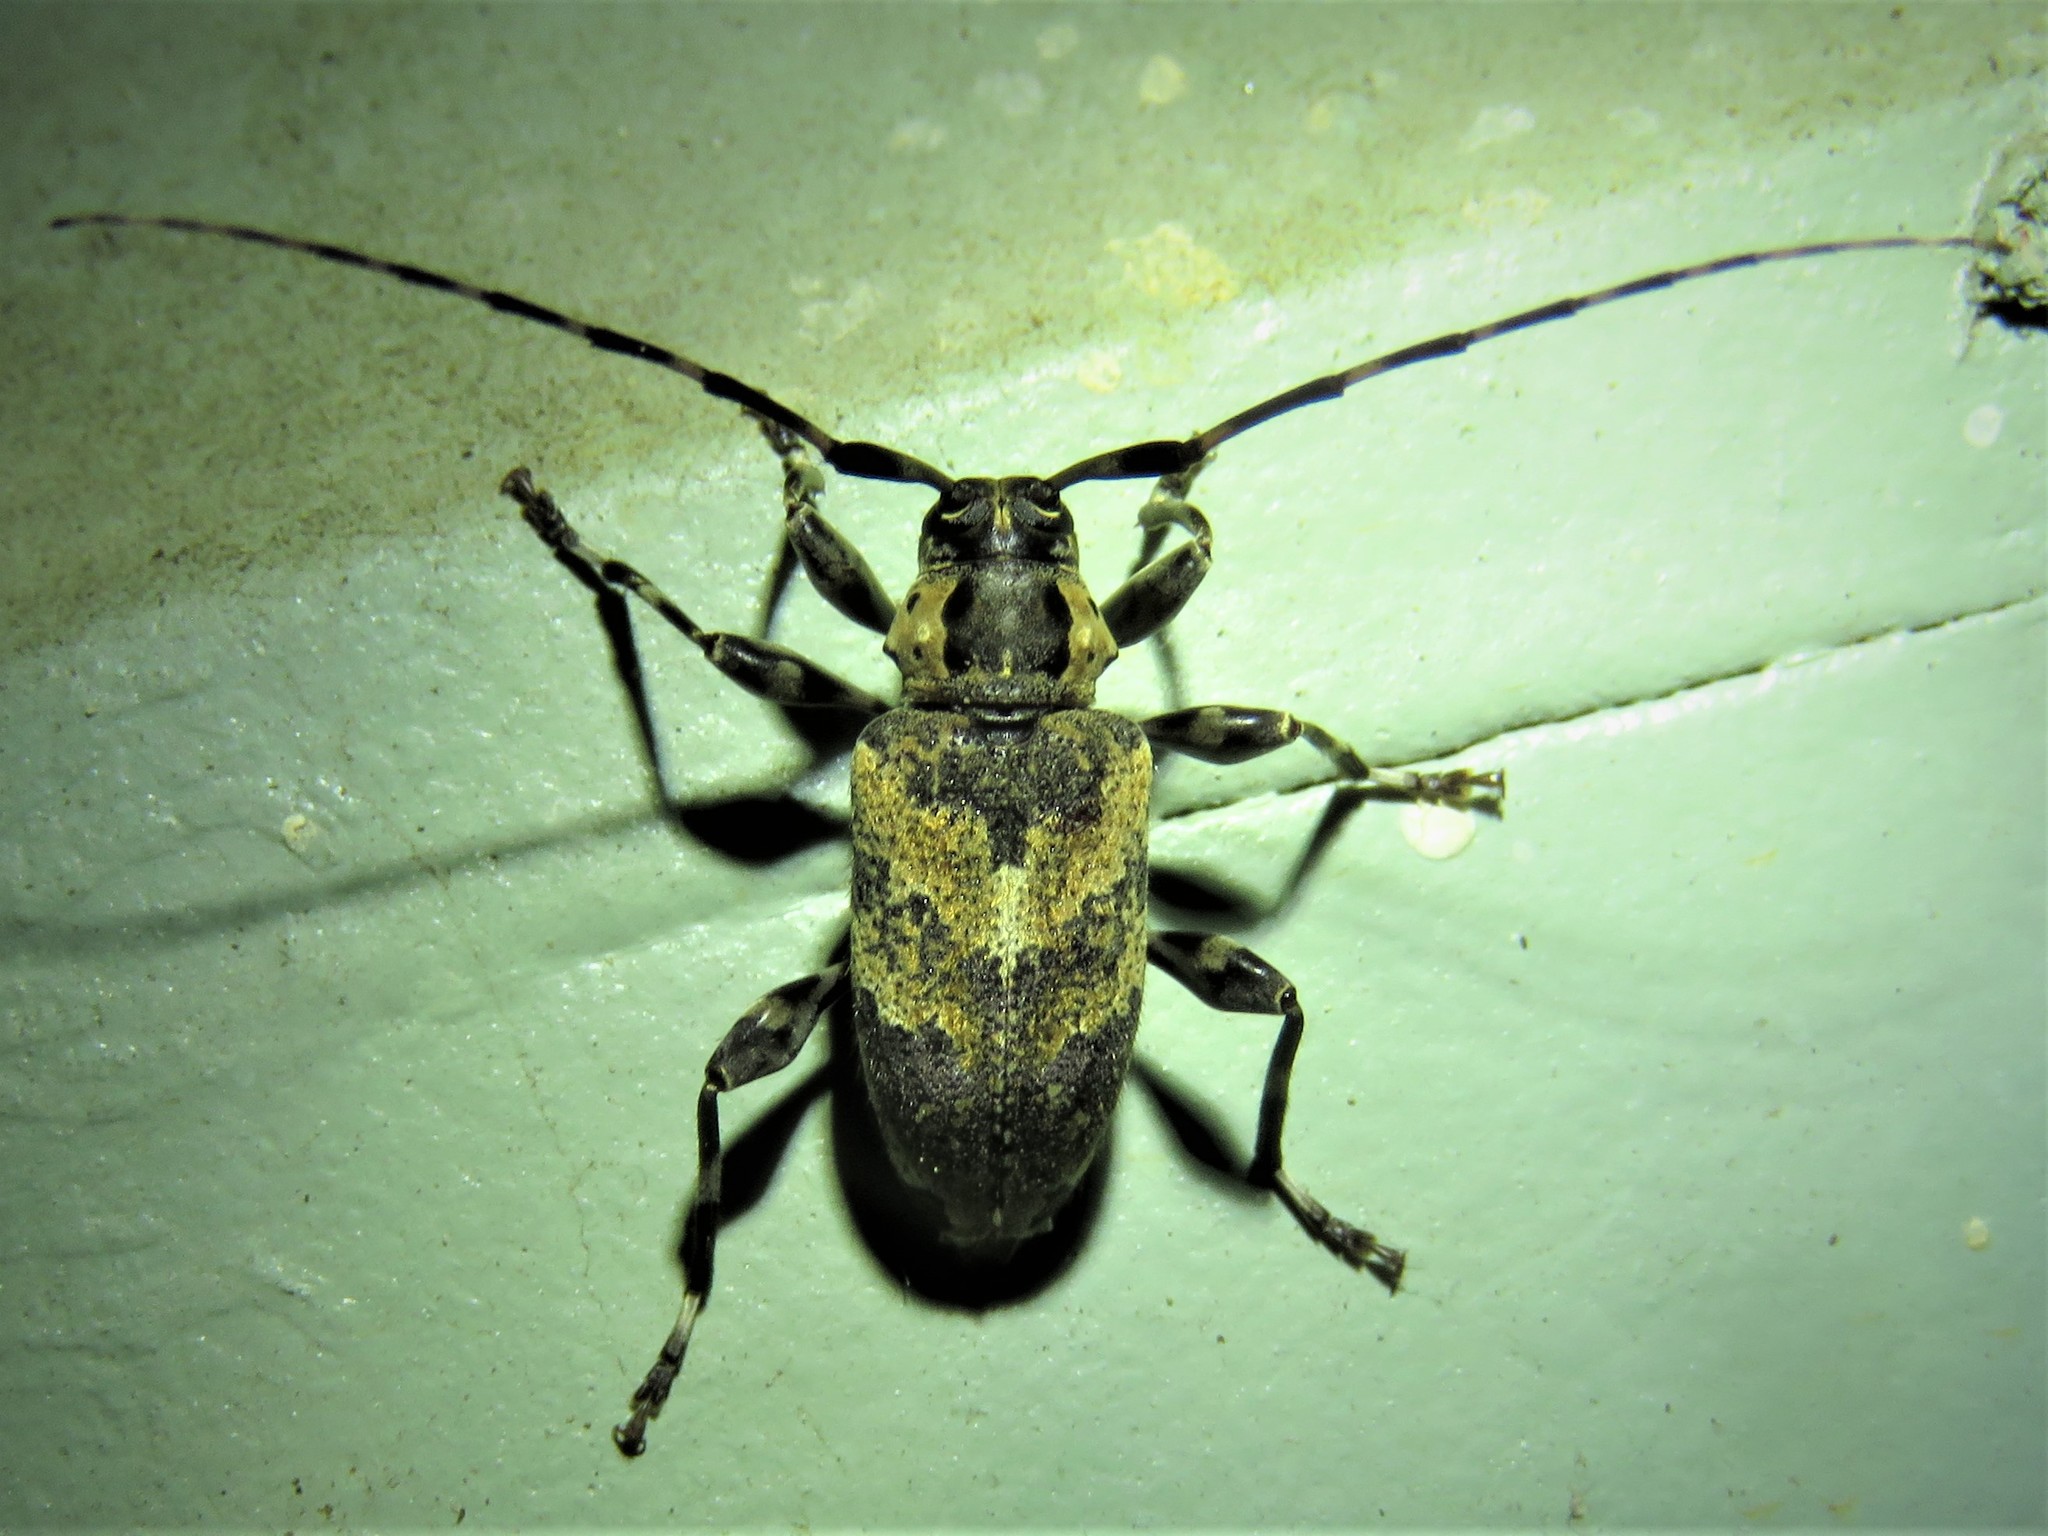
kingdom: Animalia
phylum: Arthropoda
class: Insecta
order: Coleoptera
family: Cerambycidae
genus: Graphisurus
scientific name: Graphisurus triangulifer
